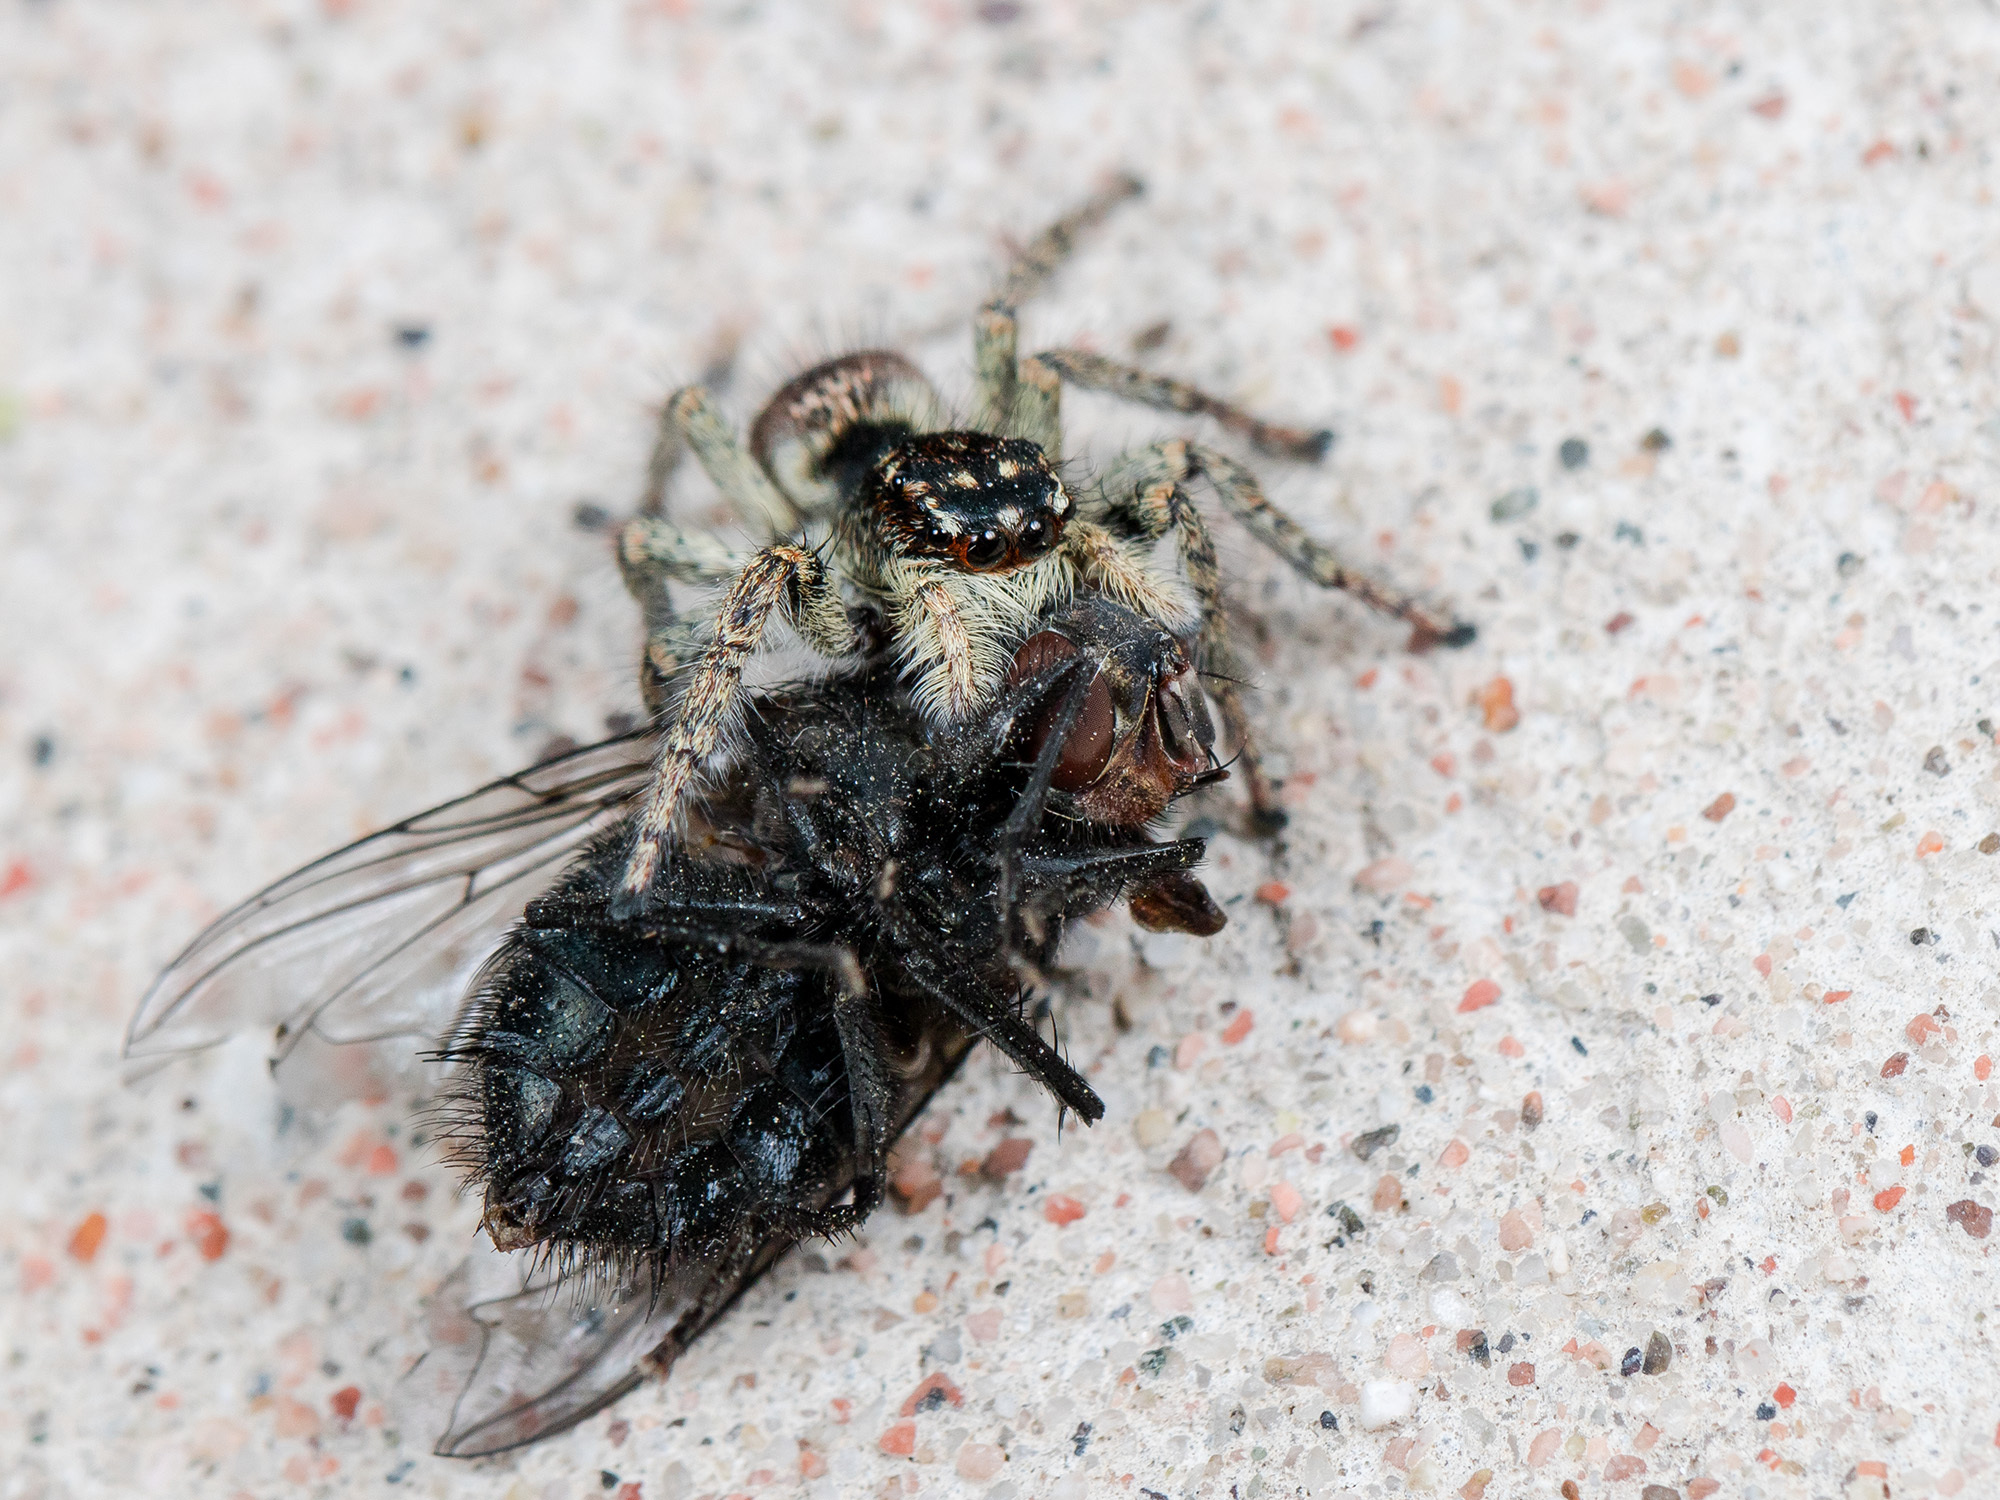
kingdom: Animalia
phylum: Arthropoda
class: Arachnida
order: Araneae
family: Salticidae
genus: Philaeus
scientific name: Philaeus chrysops
